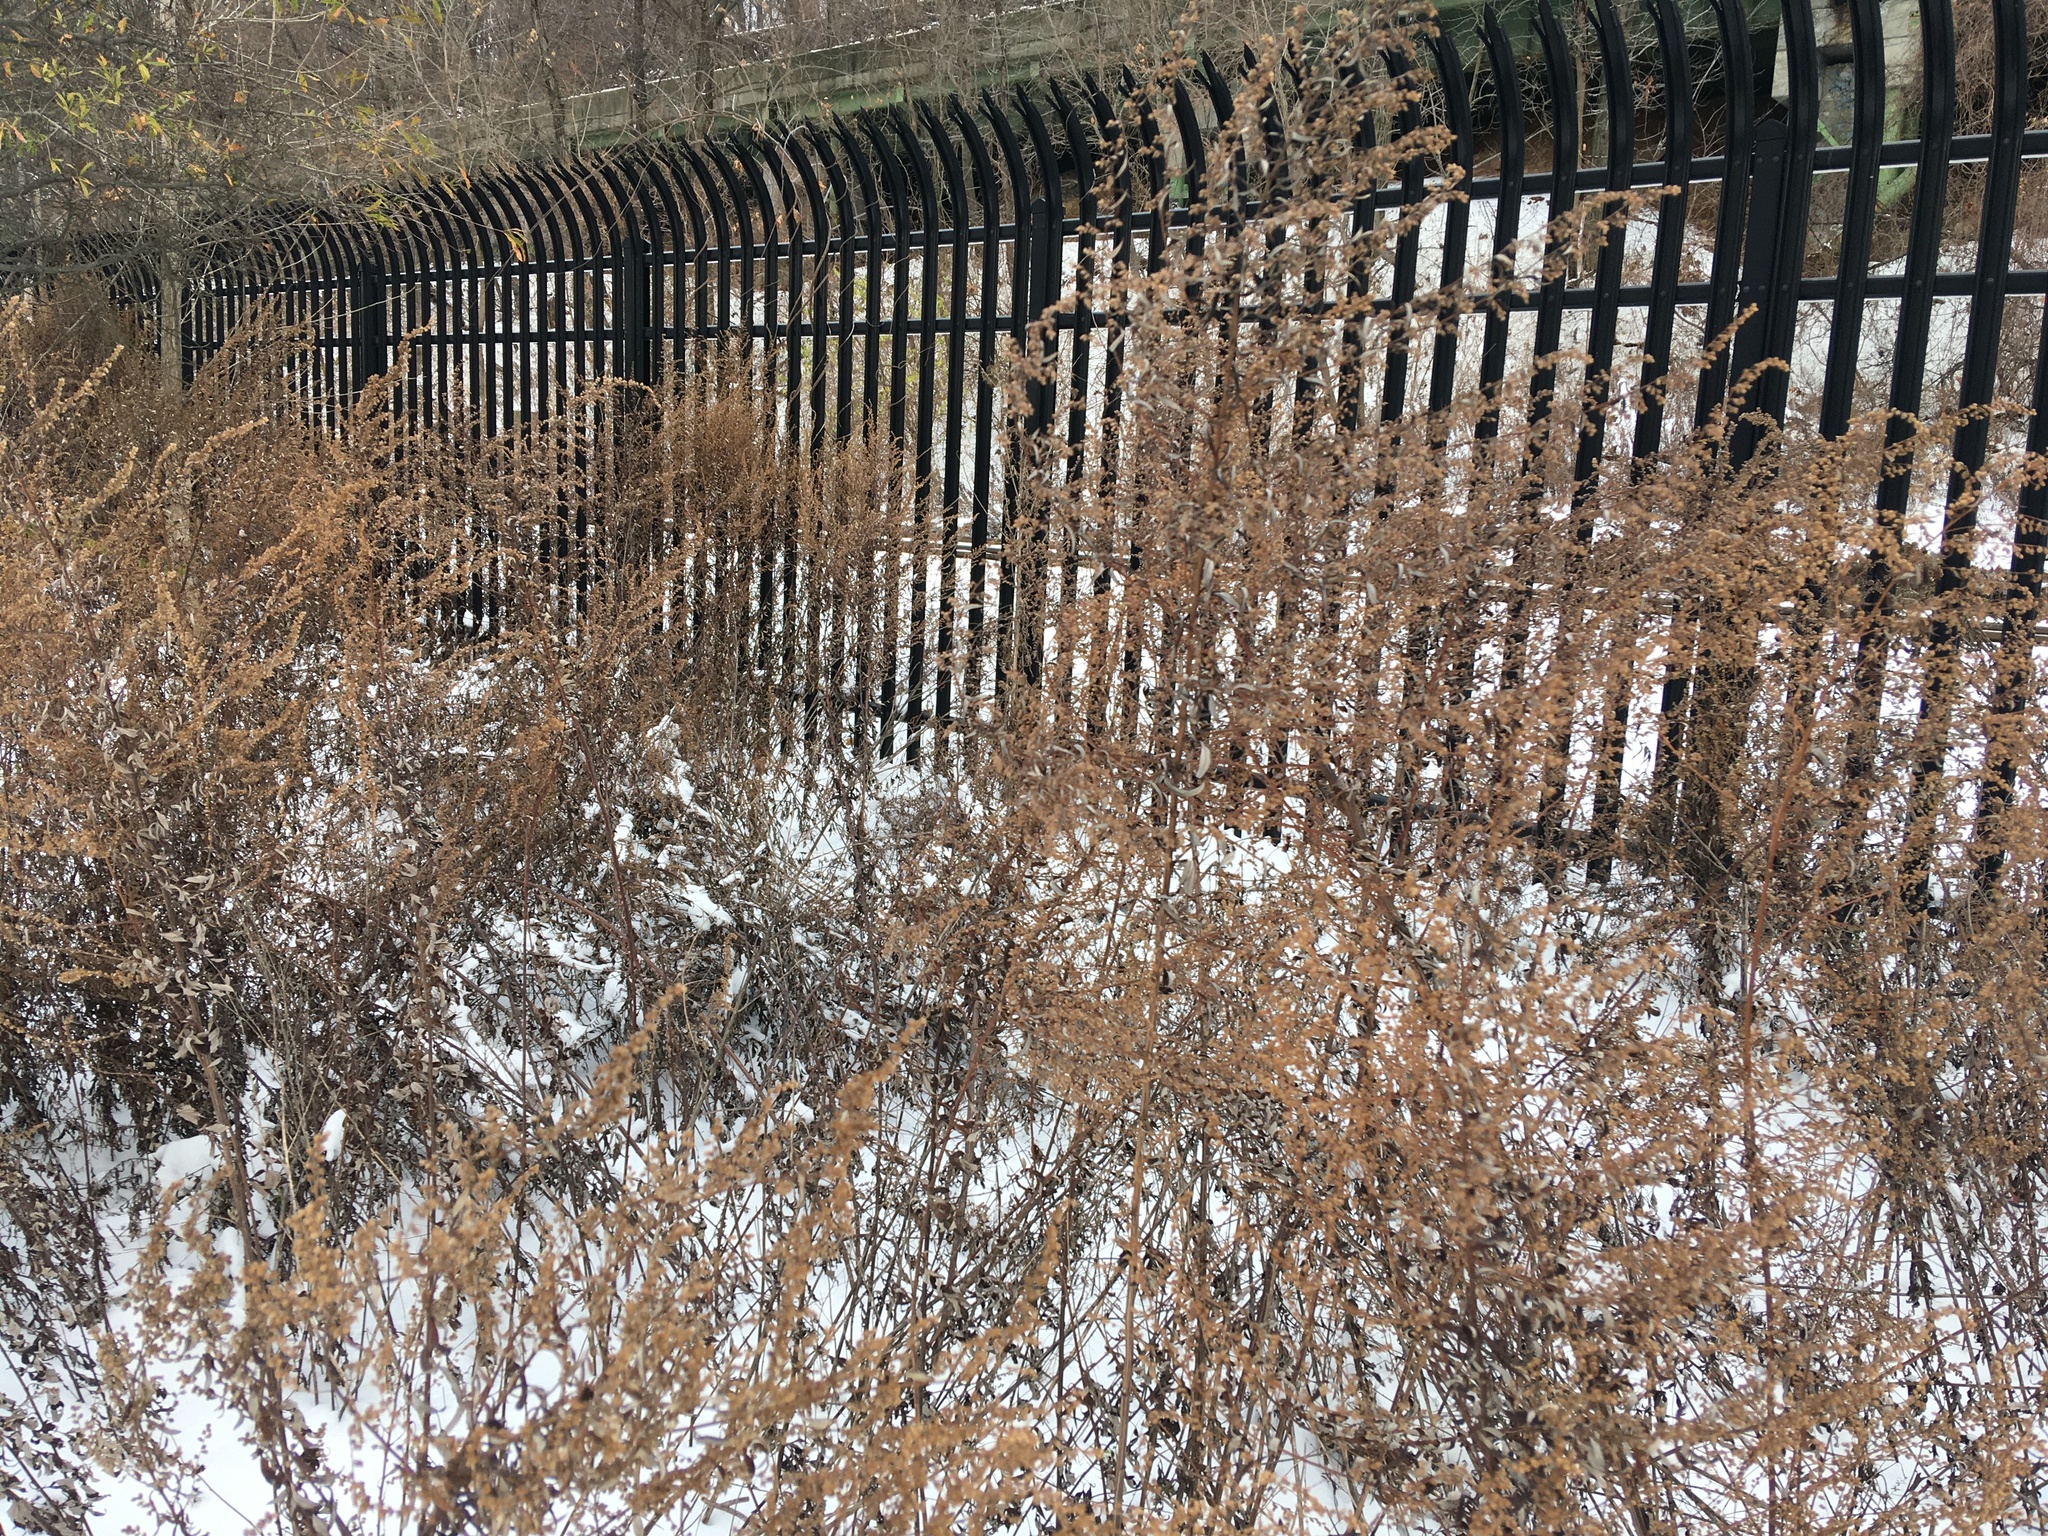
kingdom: Plantae
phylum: Tracheophyta
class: Magnoliopsida
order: Asterales
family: Asteraceae
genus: Artemisia
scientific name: Artemisia vulgaris
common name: Mugwort
